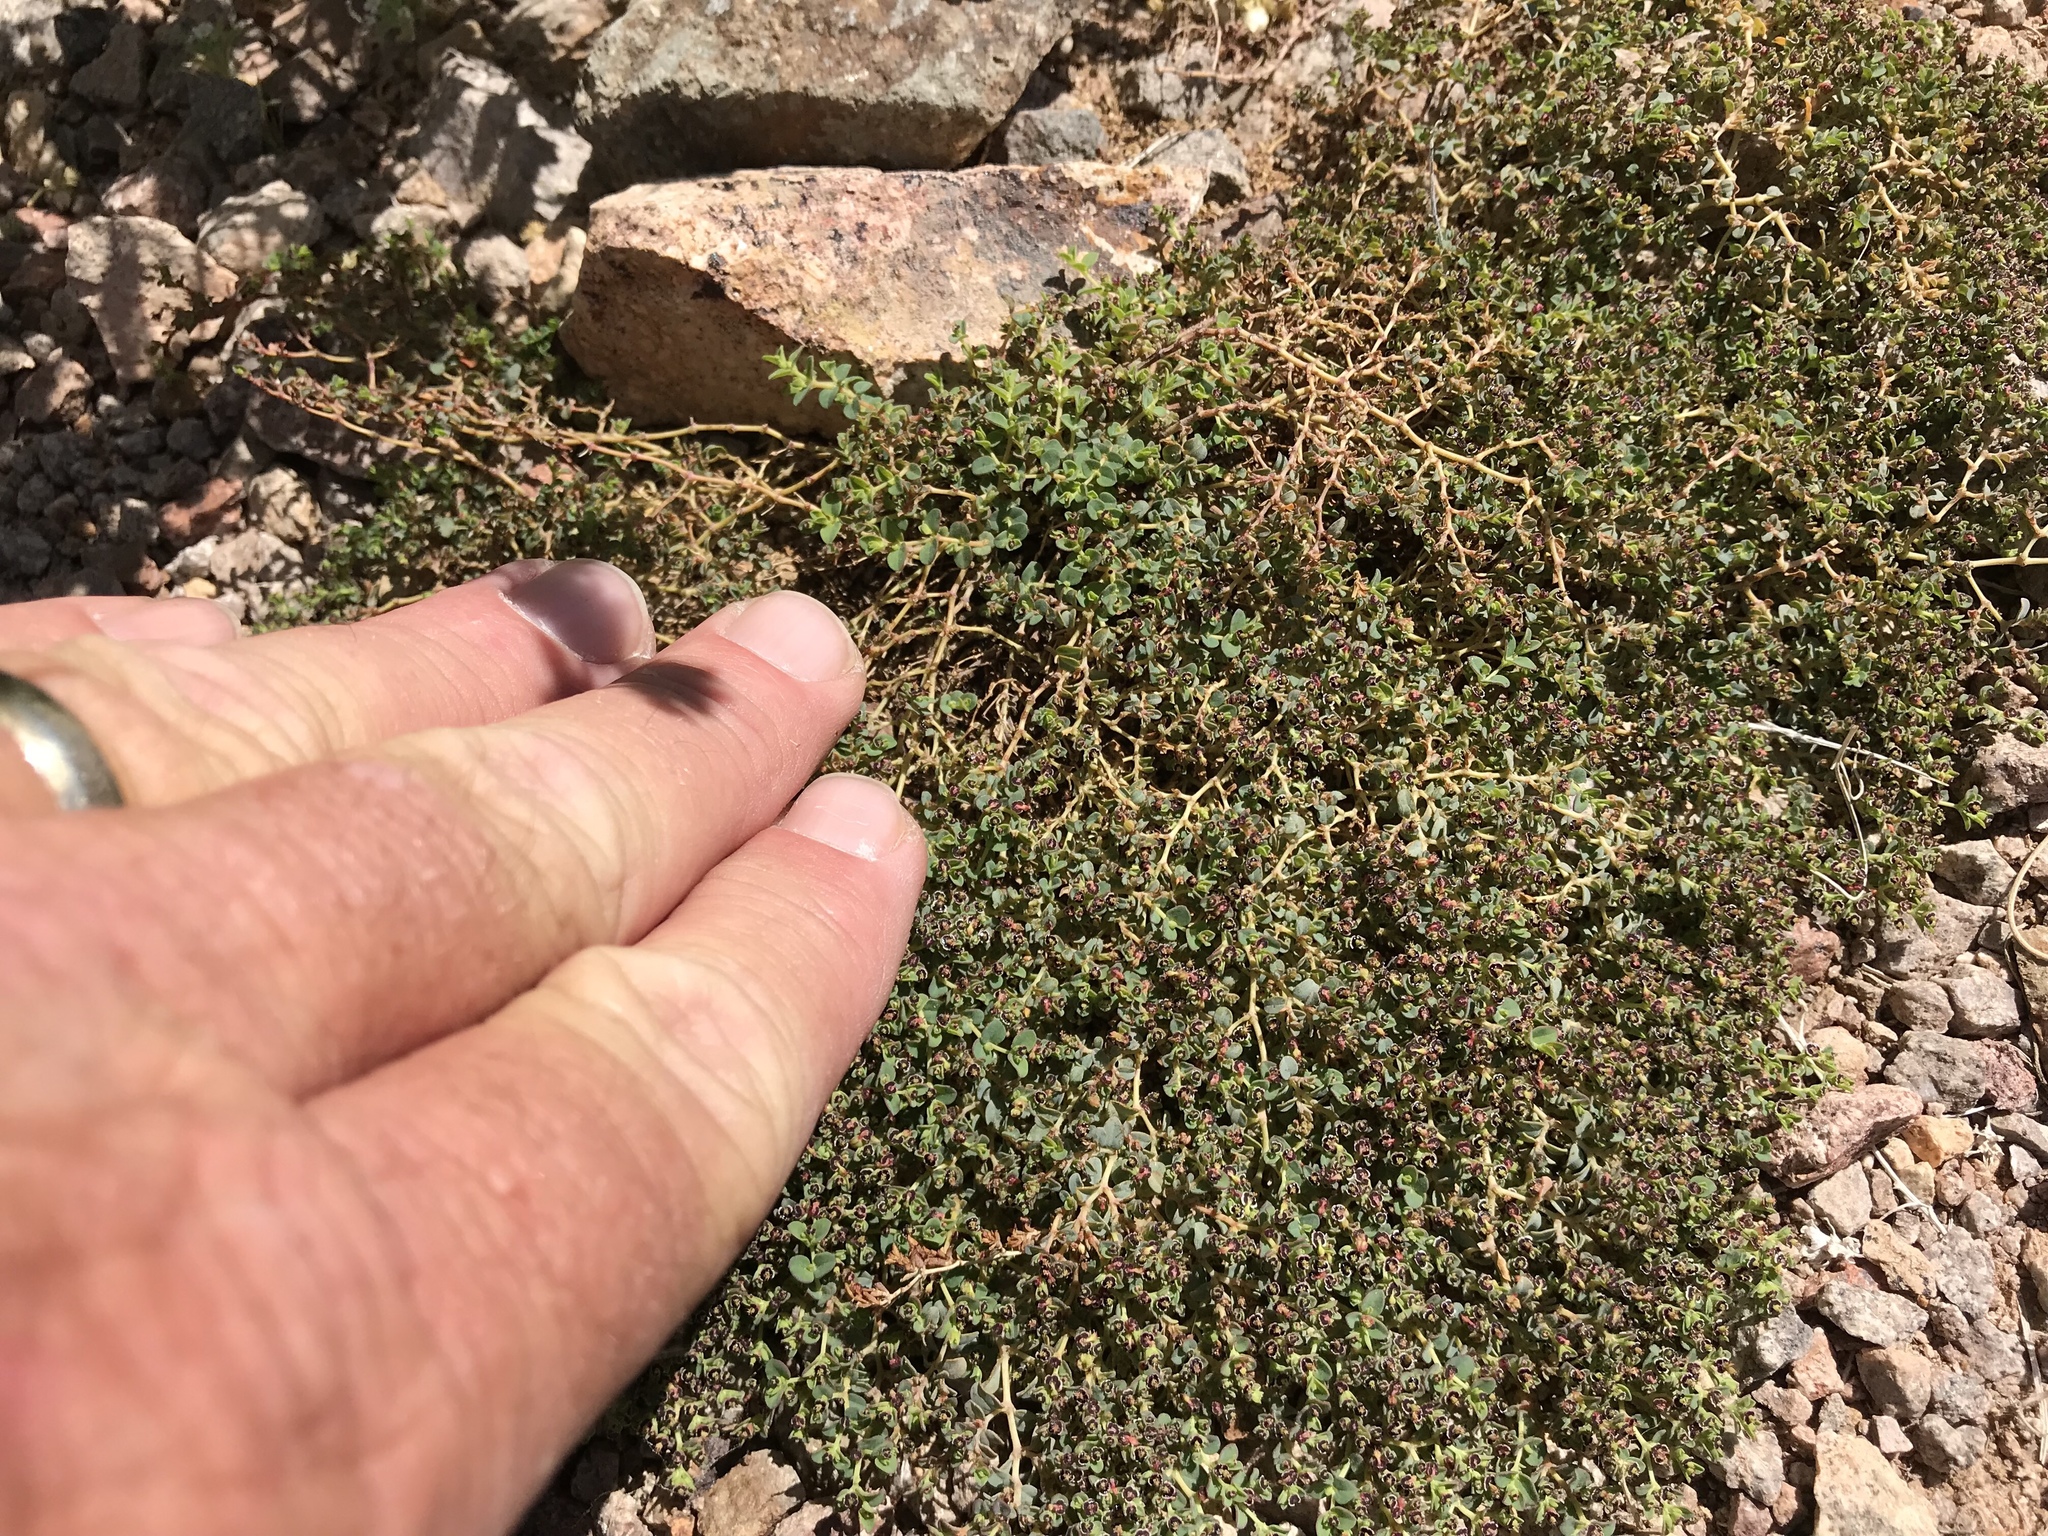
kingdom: Plantae
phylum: Tracheophyta
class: Magnoliopsida
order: Malpighiales
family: Euphorbiaceae
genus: Euphorbia
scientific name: Euphorbia polycarpa
